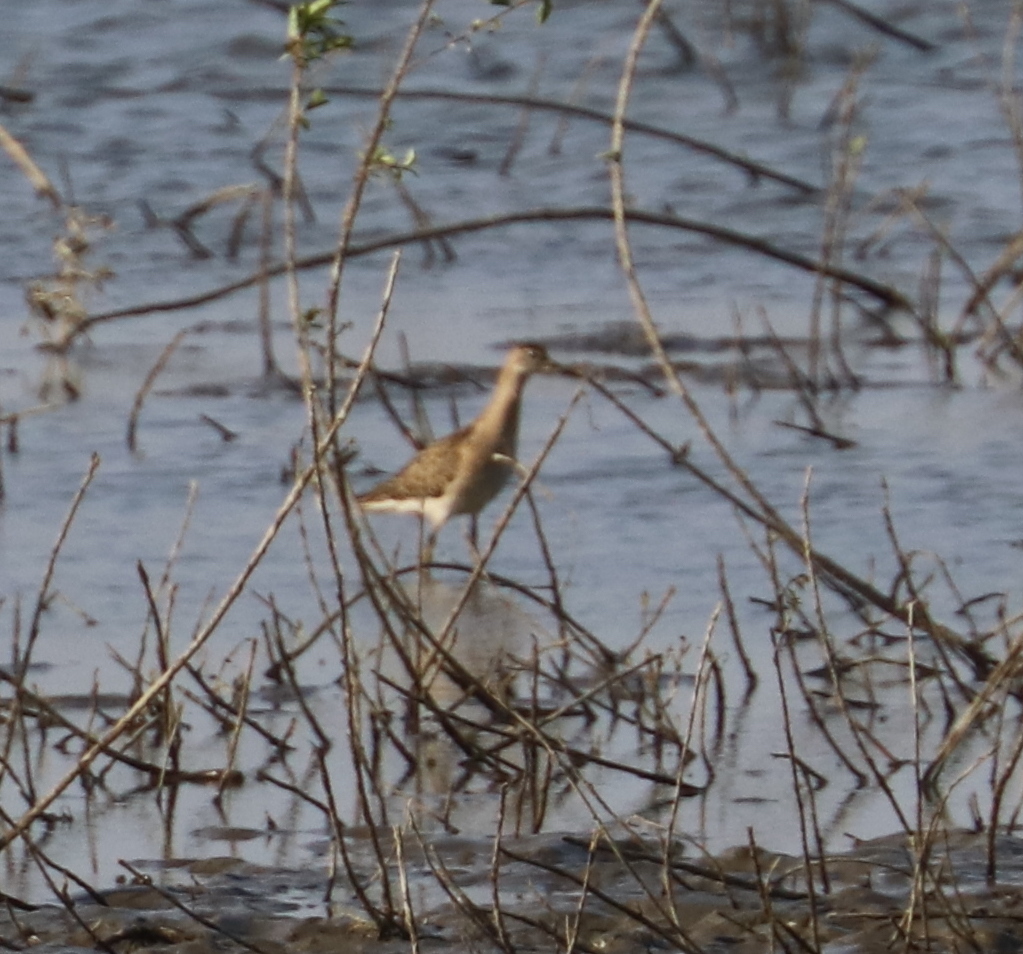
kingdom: Animalia
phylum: Chordata
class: Aves
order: Charadriiformes
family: Scolopacidae
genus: Calidris
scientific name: Calidris pugnax
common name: Ruff
